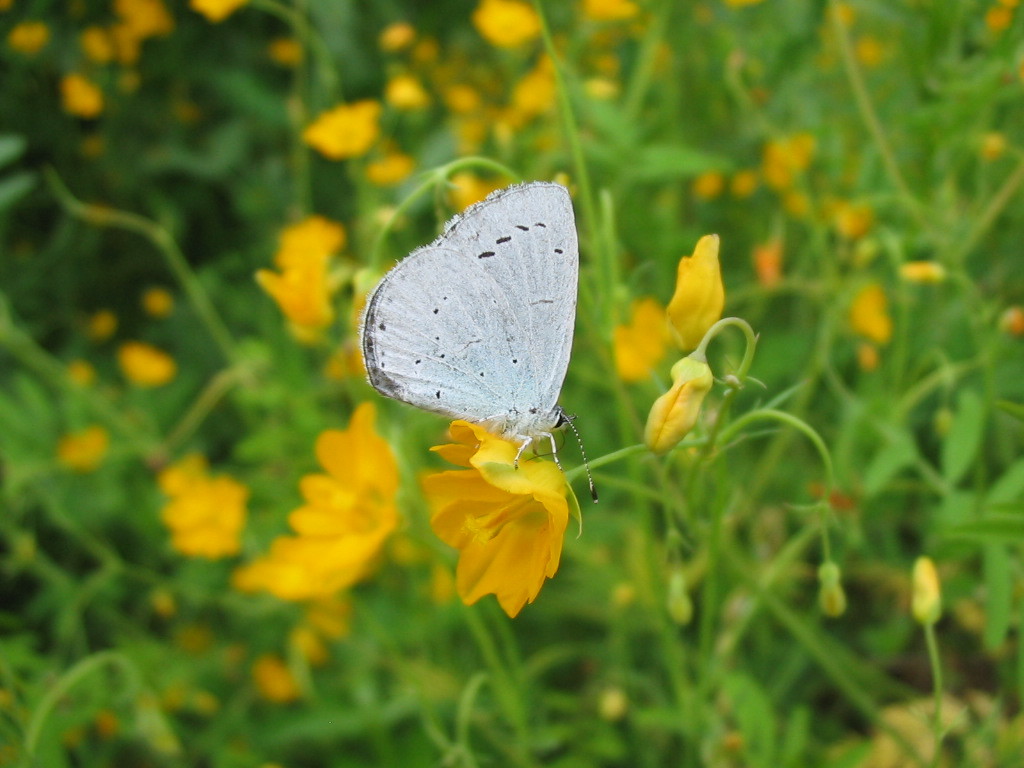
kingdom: Animalia
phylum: Arthropoda
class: Insecta
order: Lepidoptera
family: Lycaenidae
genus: Celastrina
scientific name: Celastrina argiolus
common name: Holly blue
